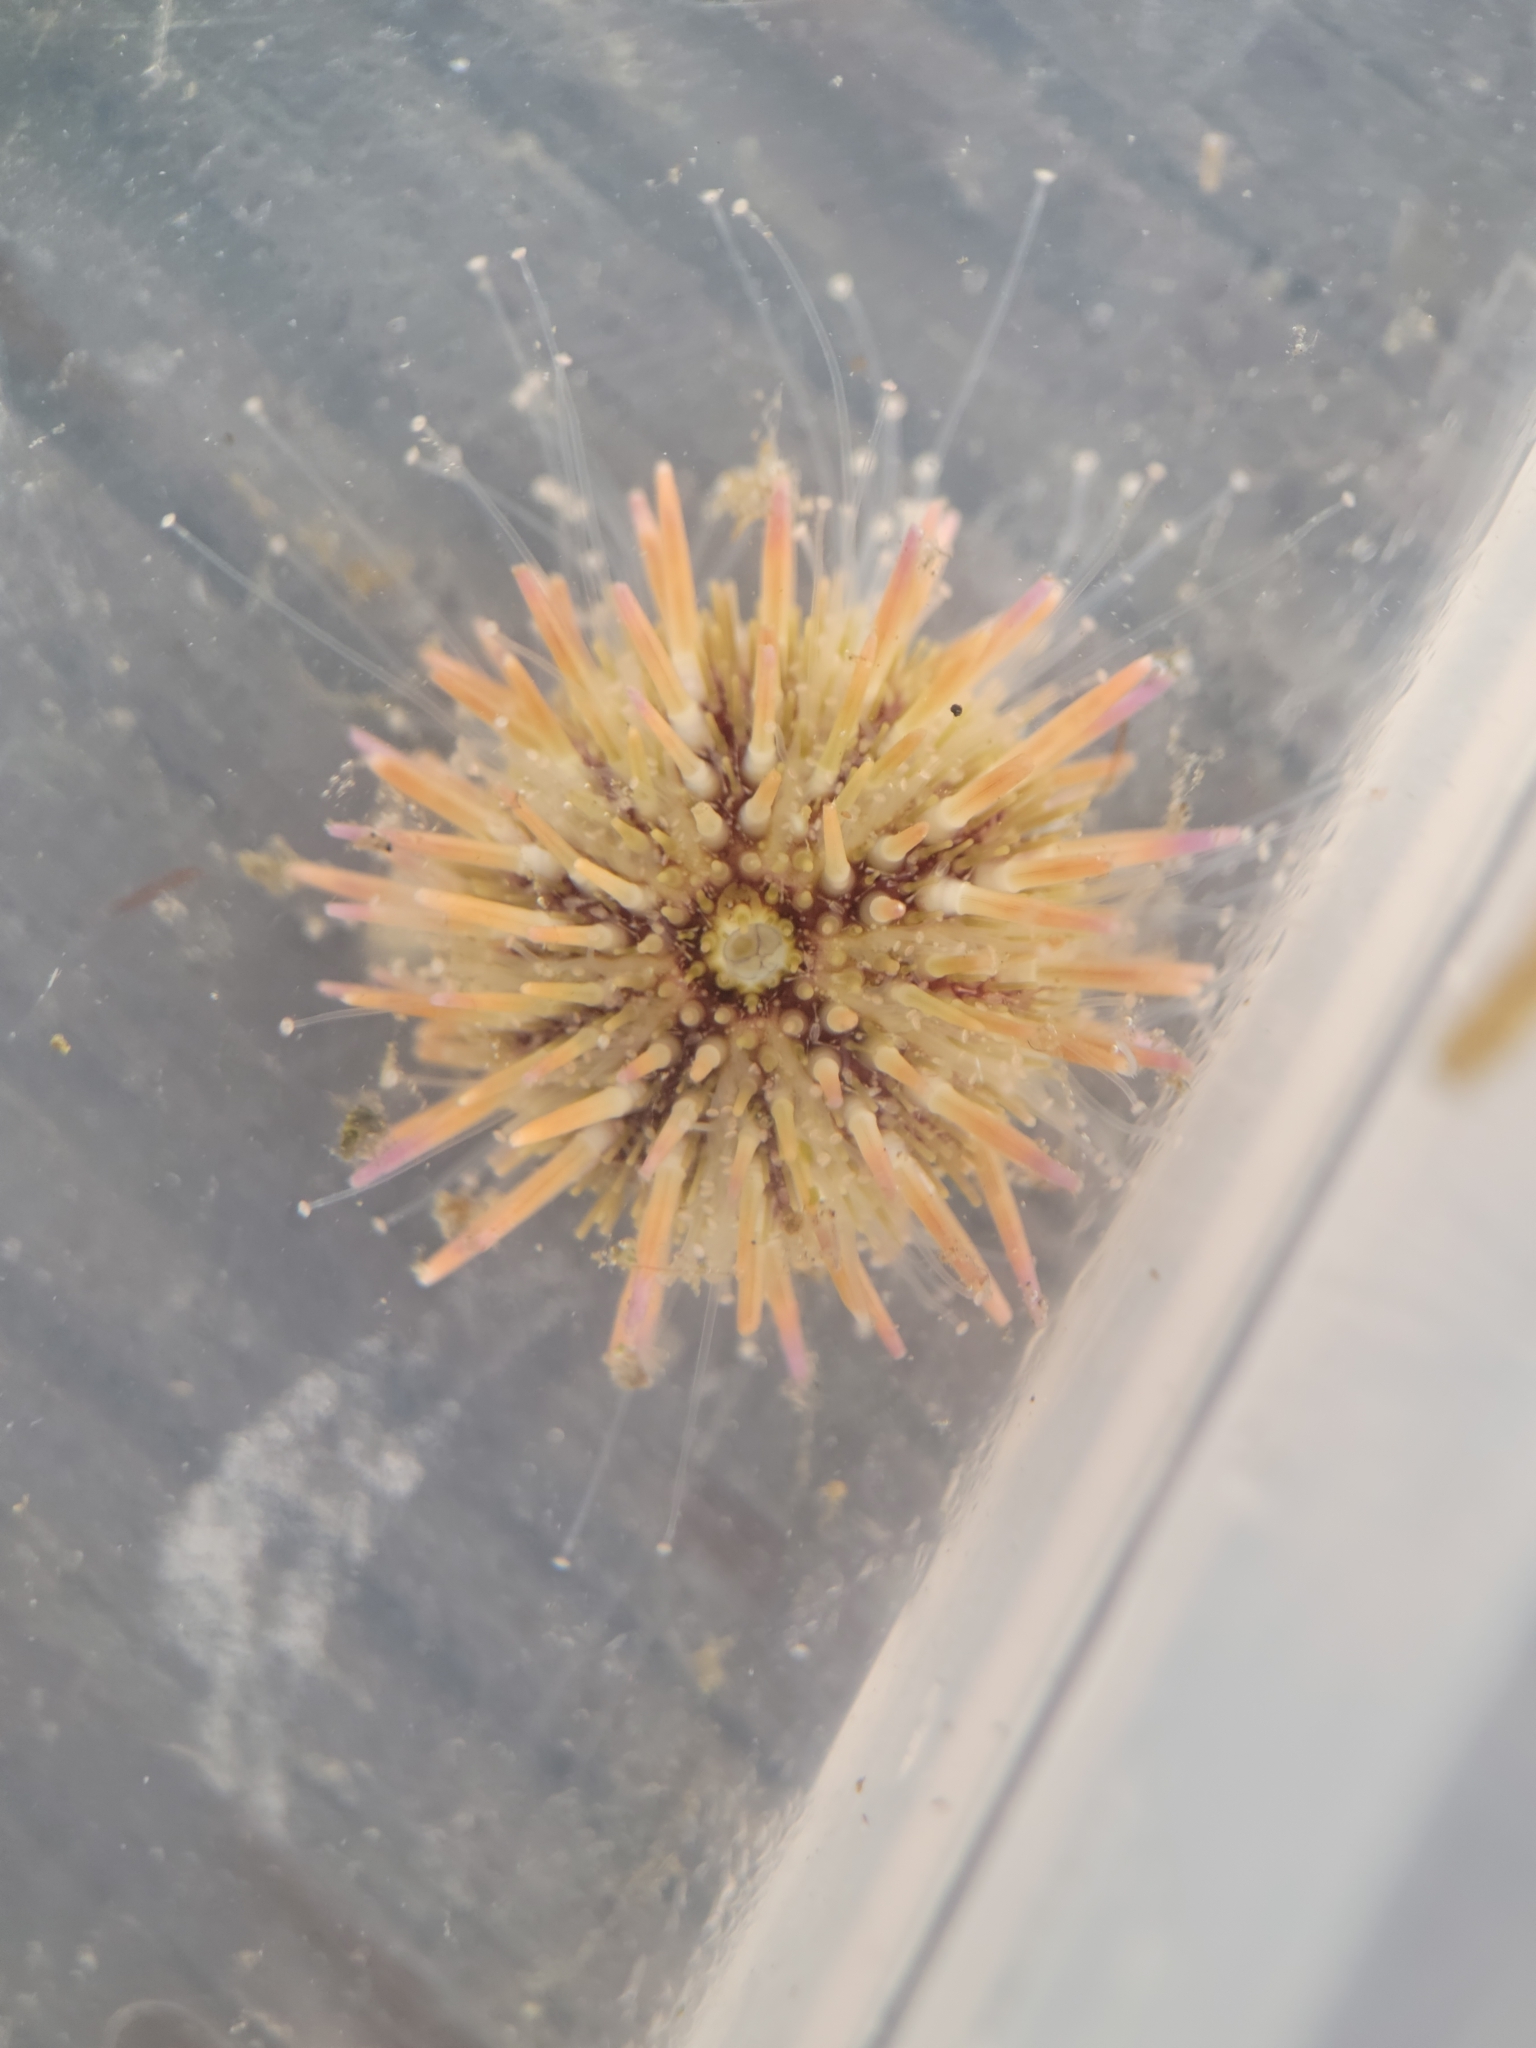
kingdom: Animalia
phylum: Echinodermata
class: Echinoidea
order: Camarodonta
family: Strongylocentrotidae
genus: Strongylocentrotus
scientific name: Strongylocentrotus purpuratus
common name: Purple sea urchin
